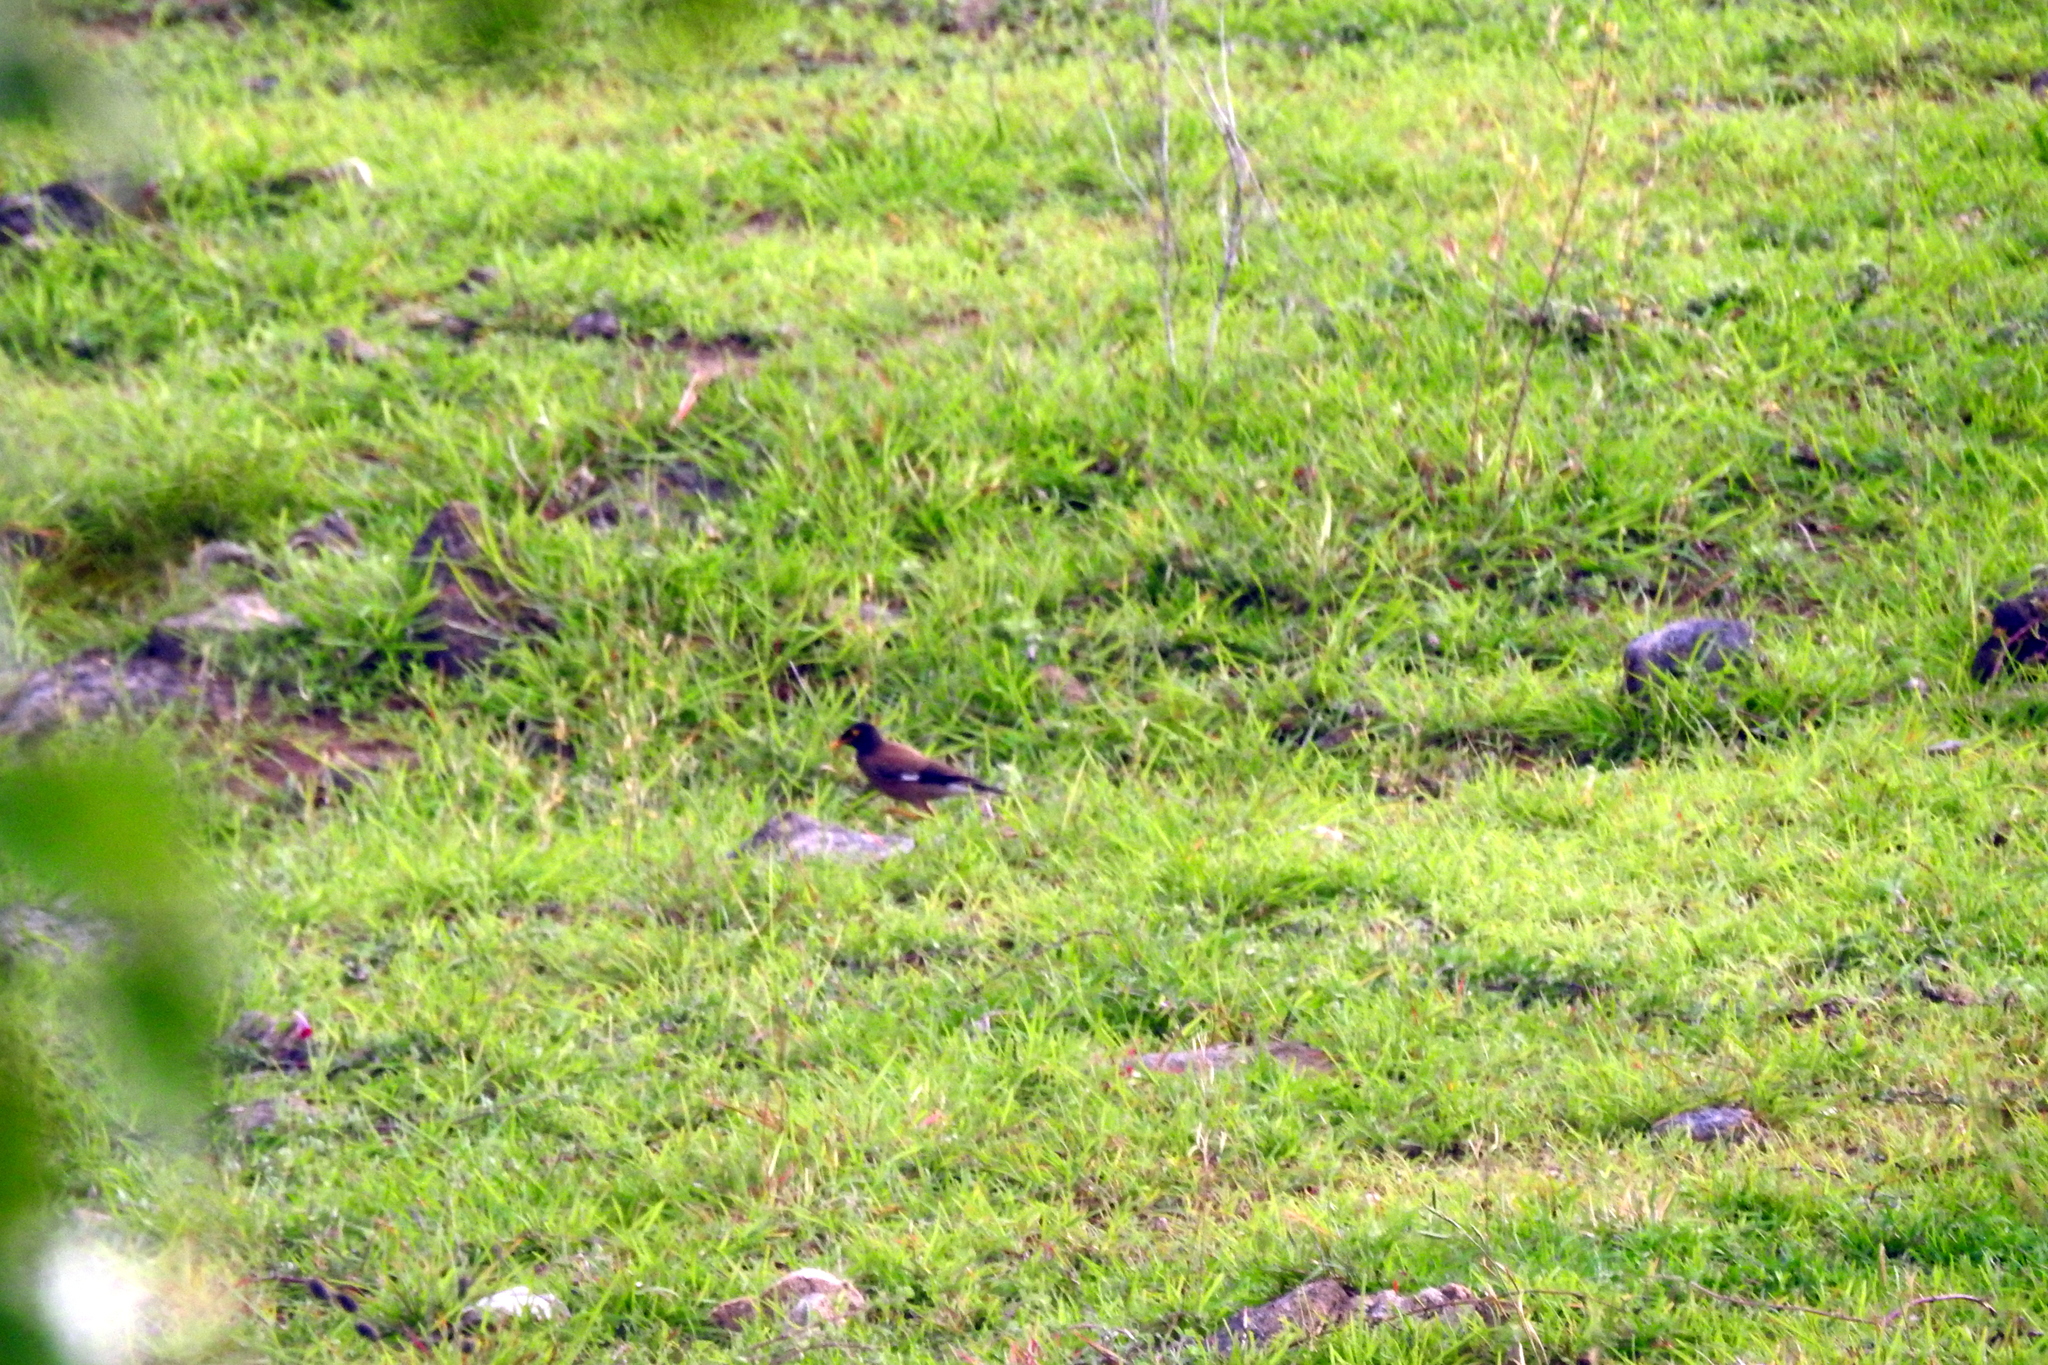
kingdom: Animalia
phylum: Chordata
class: Aves
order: Passeriformes
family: Sturnidae
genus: Acridotheres
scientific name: Acridotheres tristis
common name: Common myna
